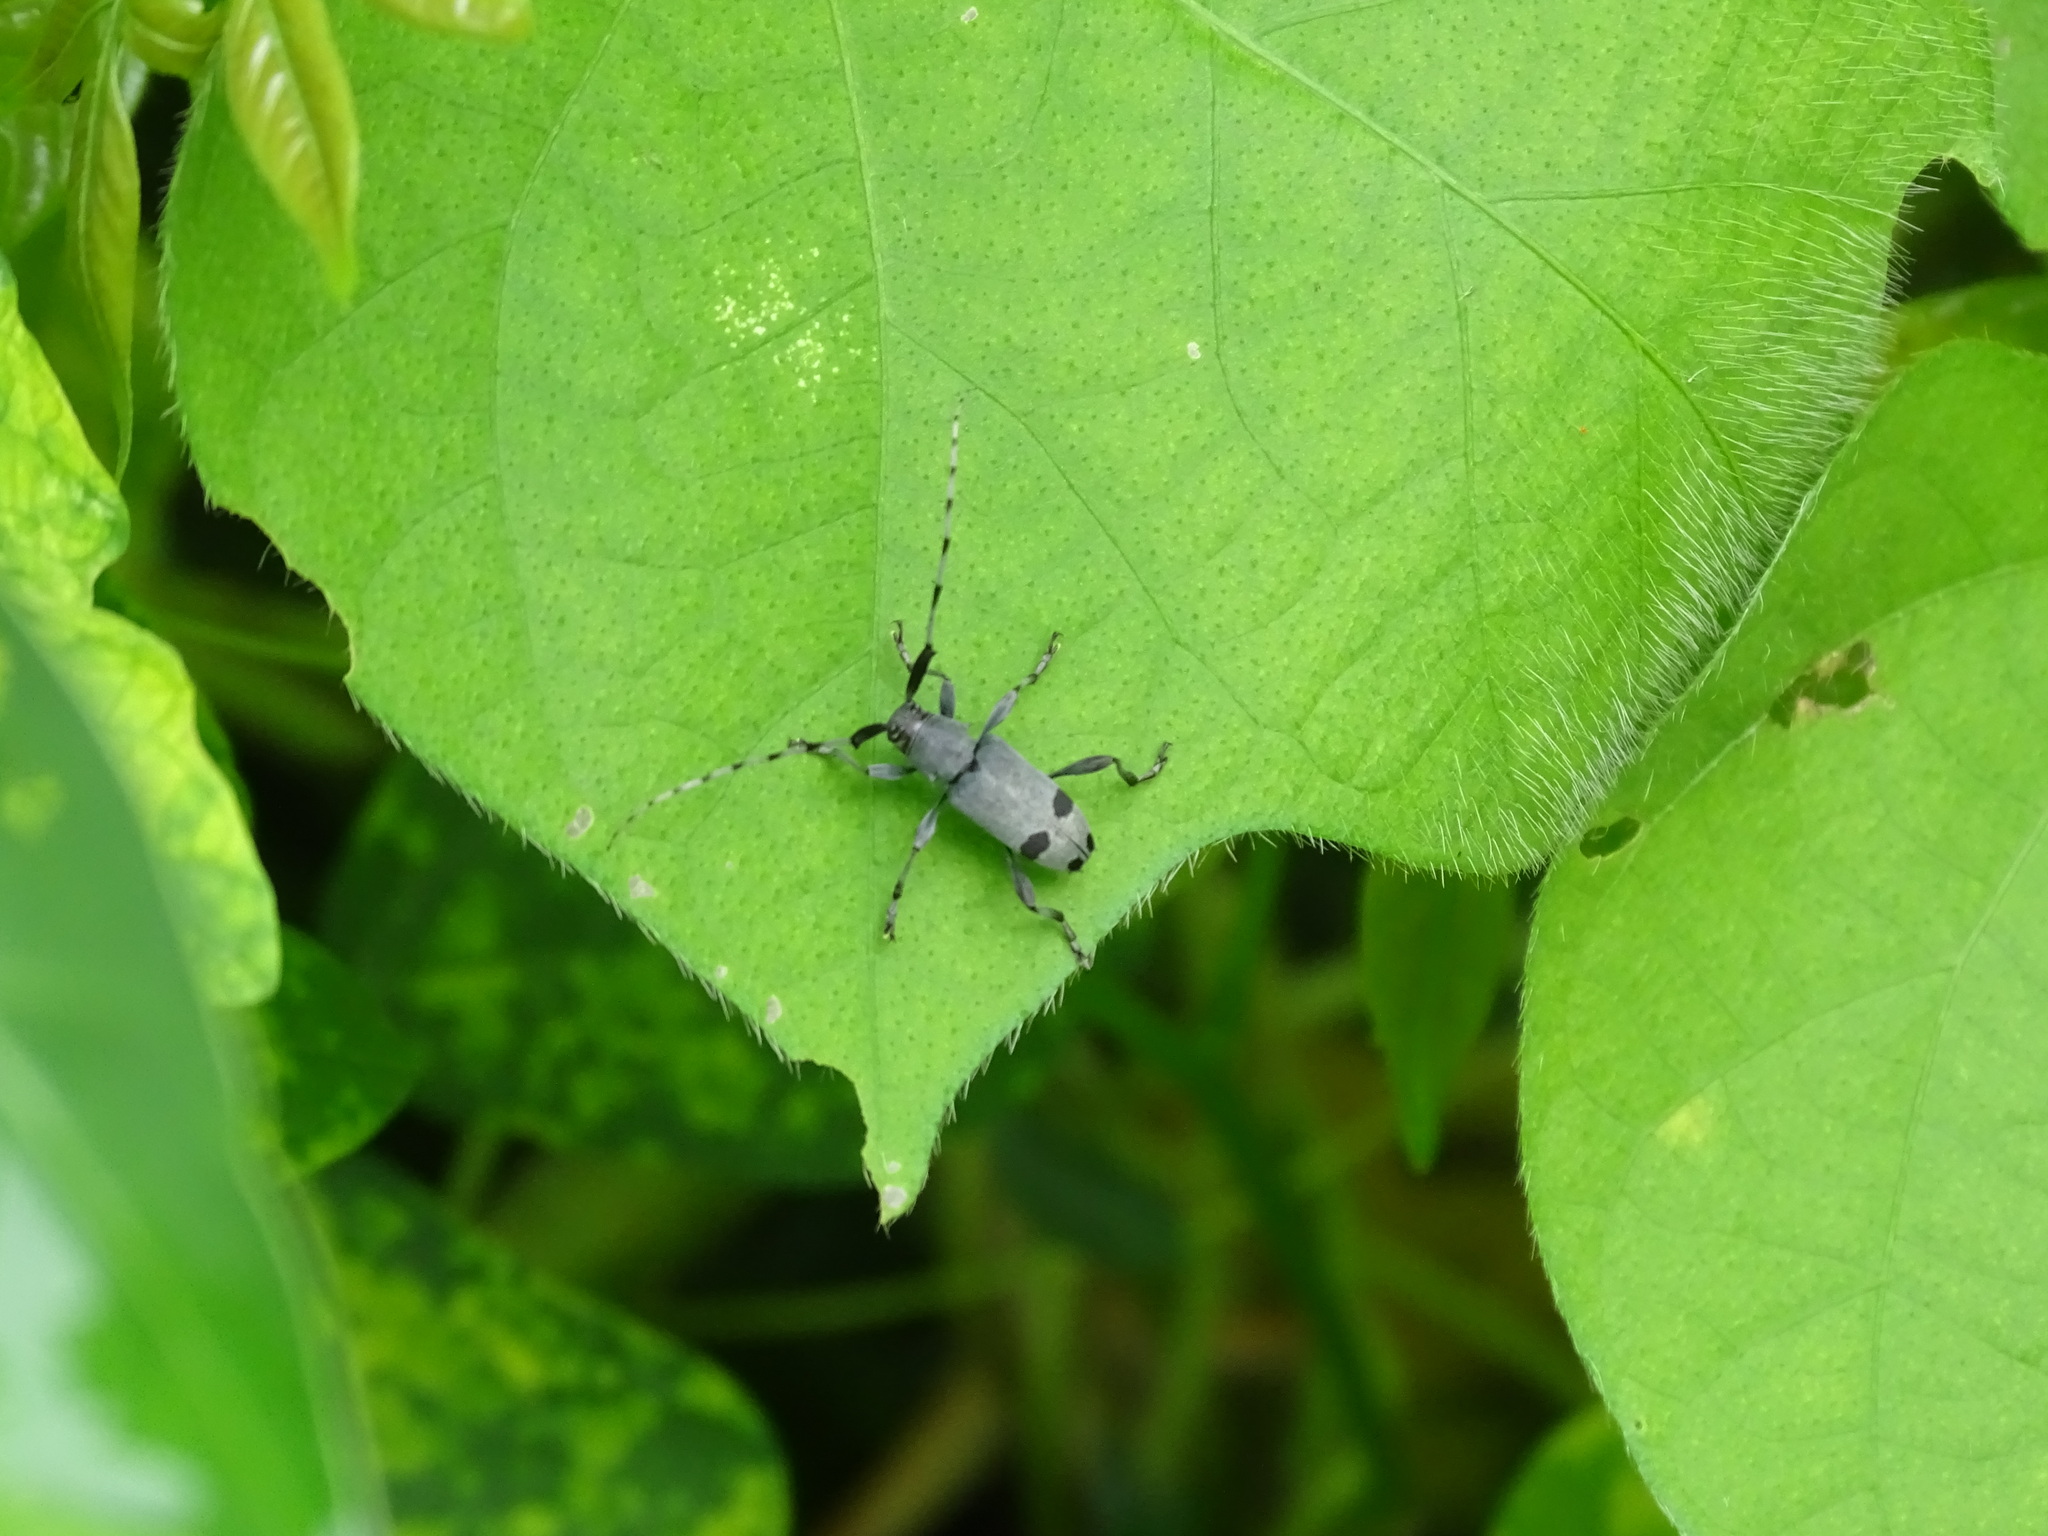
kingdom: Animalia
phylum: Arthropoda
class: Insecta
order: Coleoptera
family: Cerambycidae
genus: Canidia
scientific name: Canidia cincticornis
